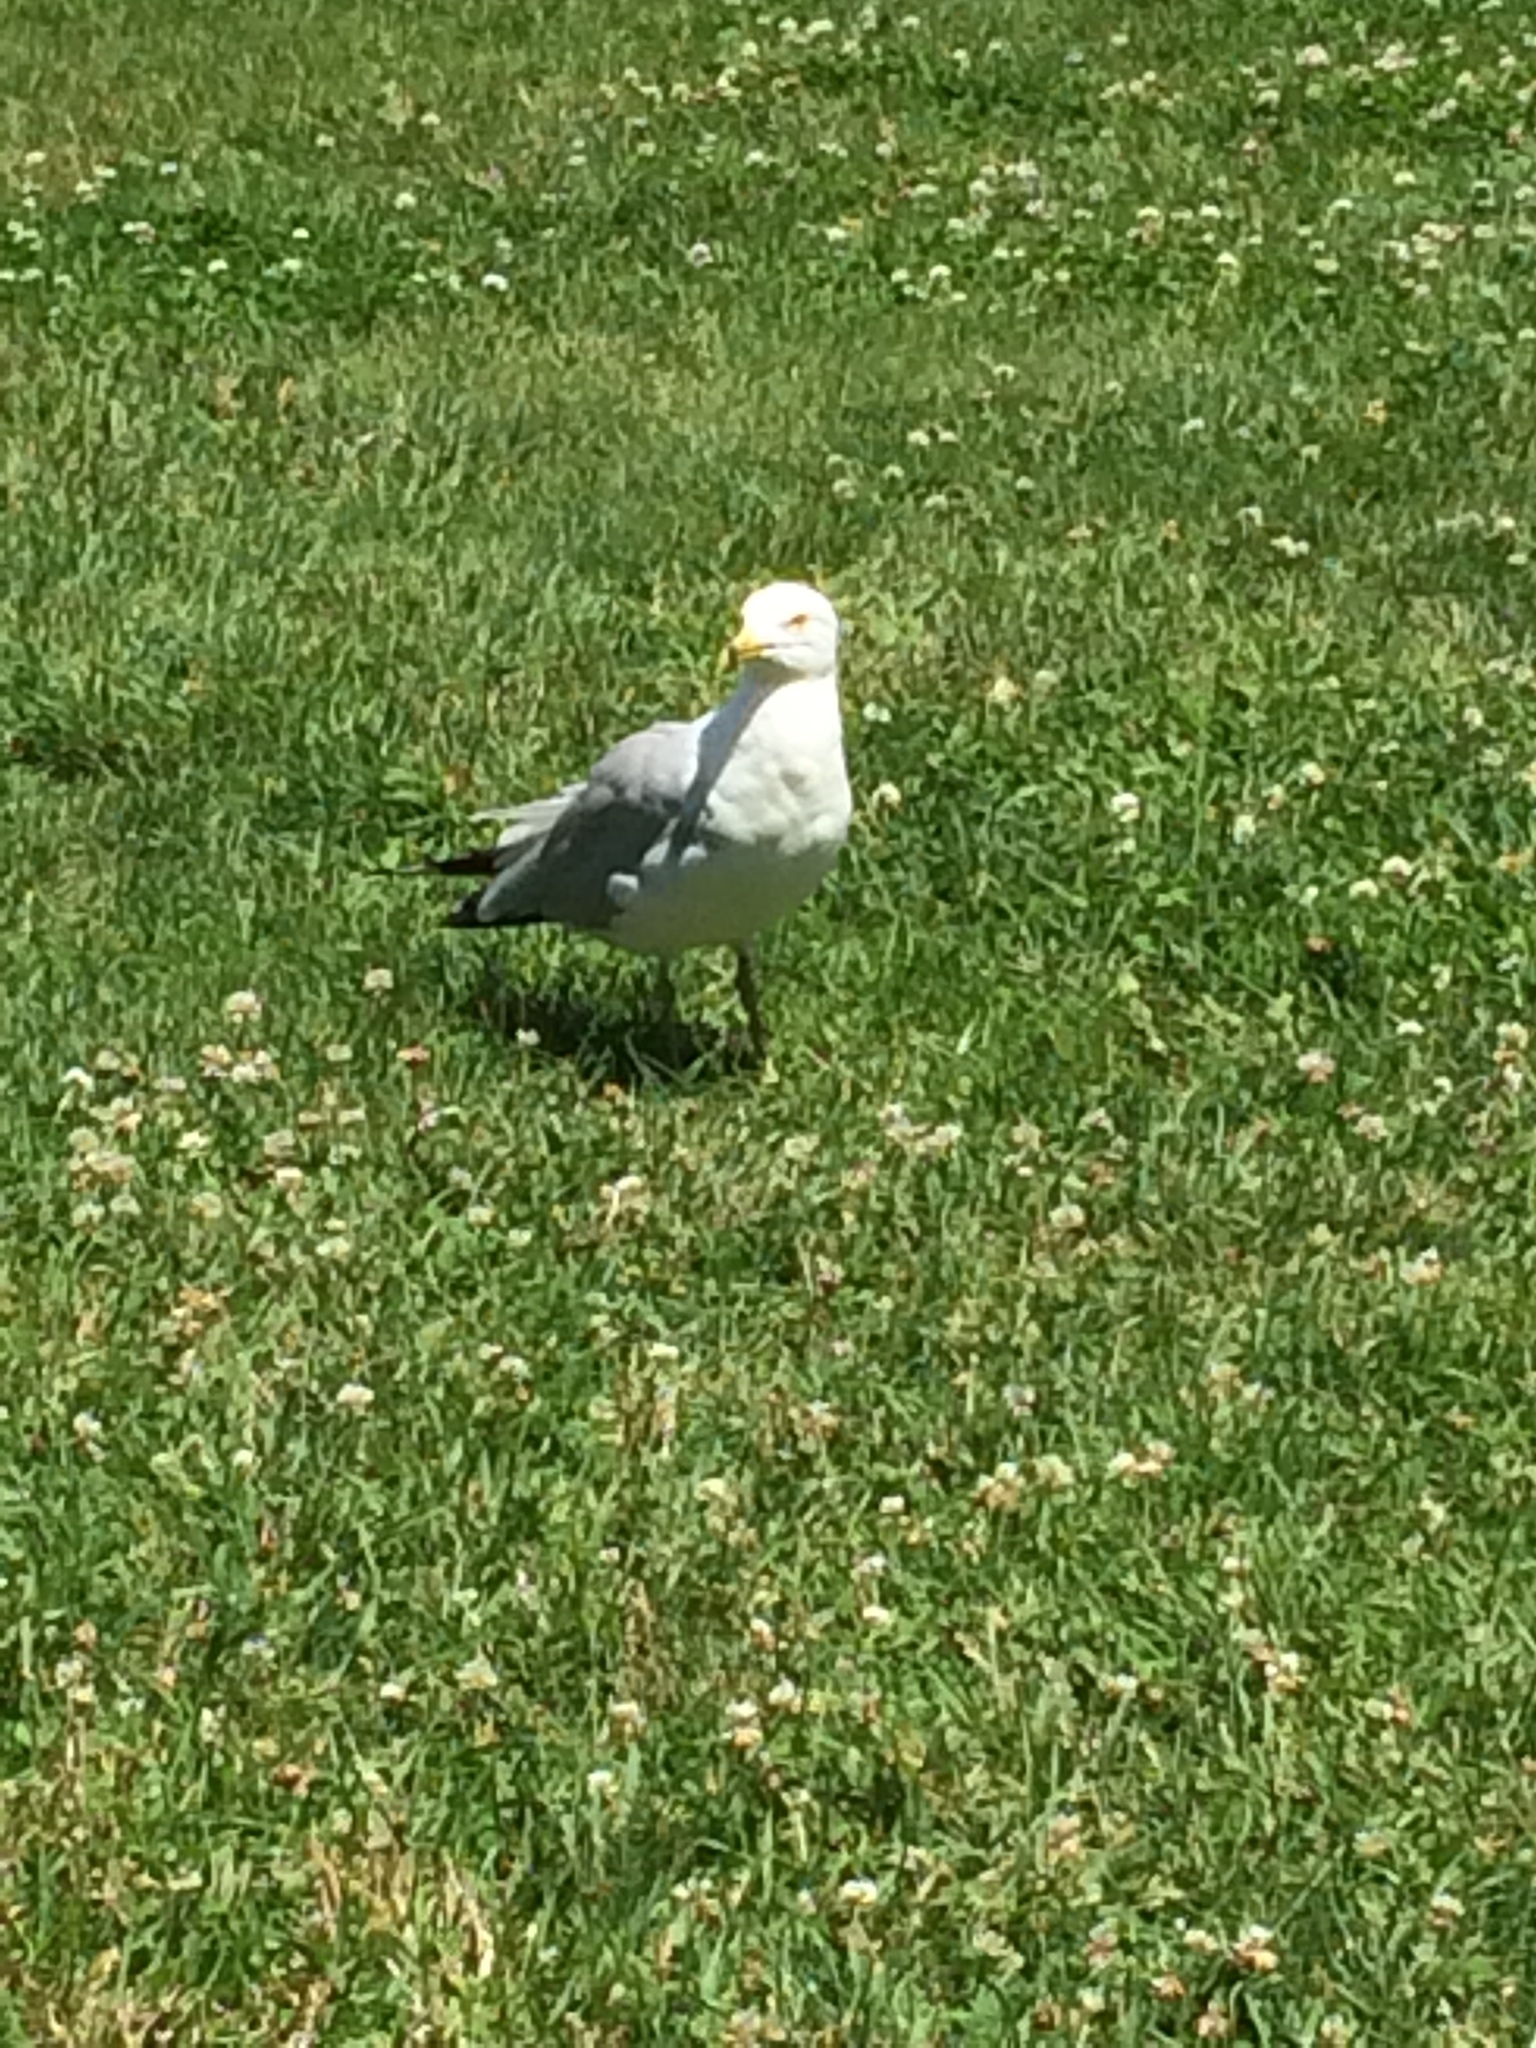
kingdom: Animalia
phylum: Chordata
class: Aves
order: Charadriiformes
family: Laridae
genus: Larus
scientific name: Larus delawarensis
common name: Ring-billed gull
